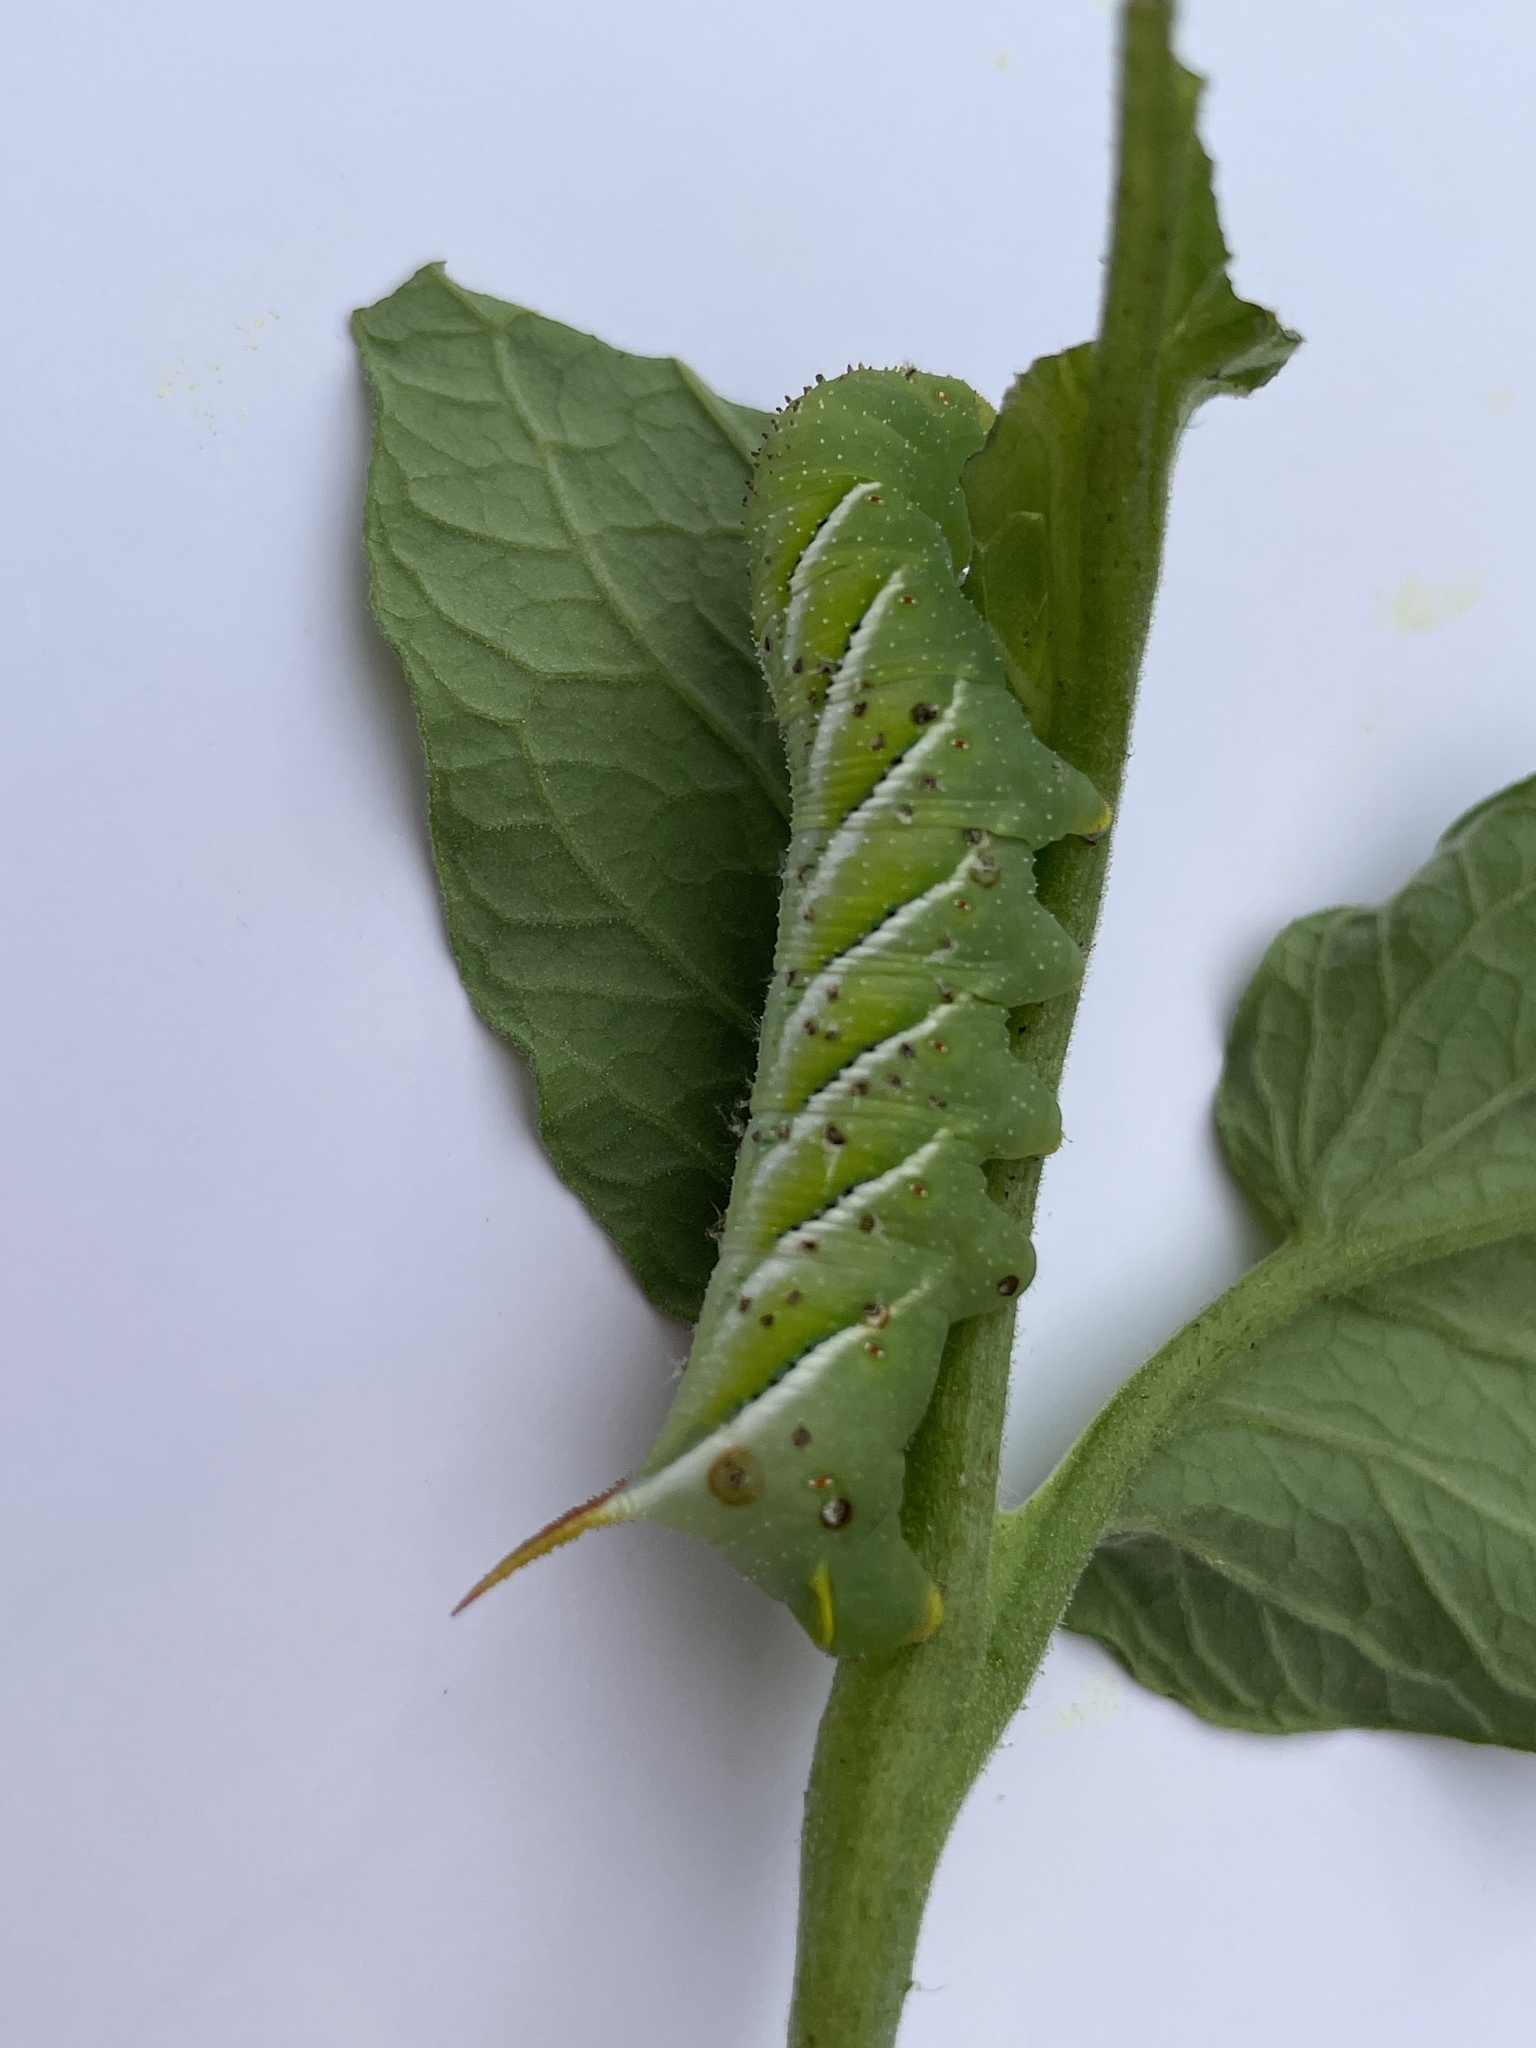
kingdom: Animalia
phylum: Arthropoda
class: Insecta
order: Lepidoptera
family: Sphingidae
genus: Manduca
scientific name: Manduca sexta
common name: Carolina sphinx
